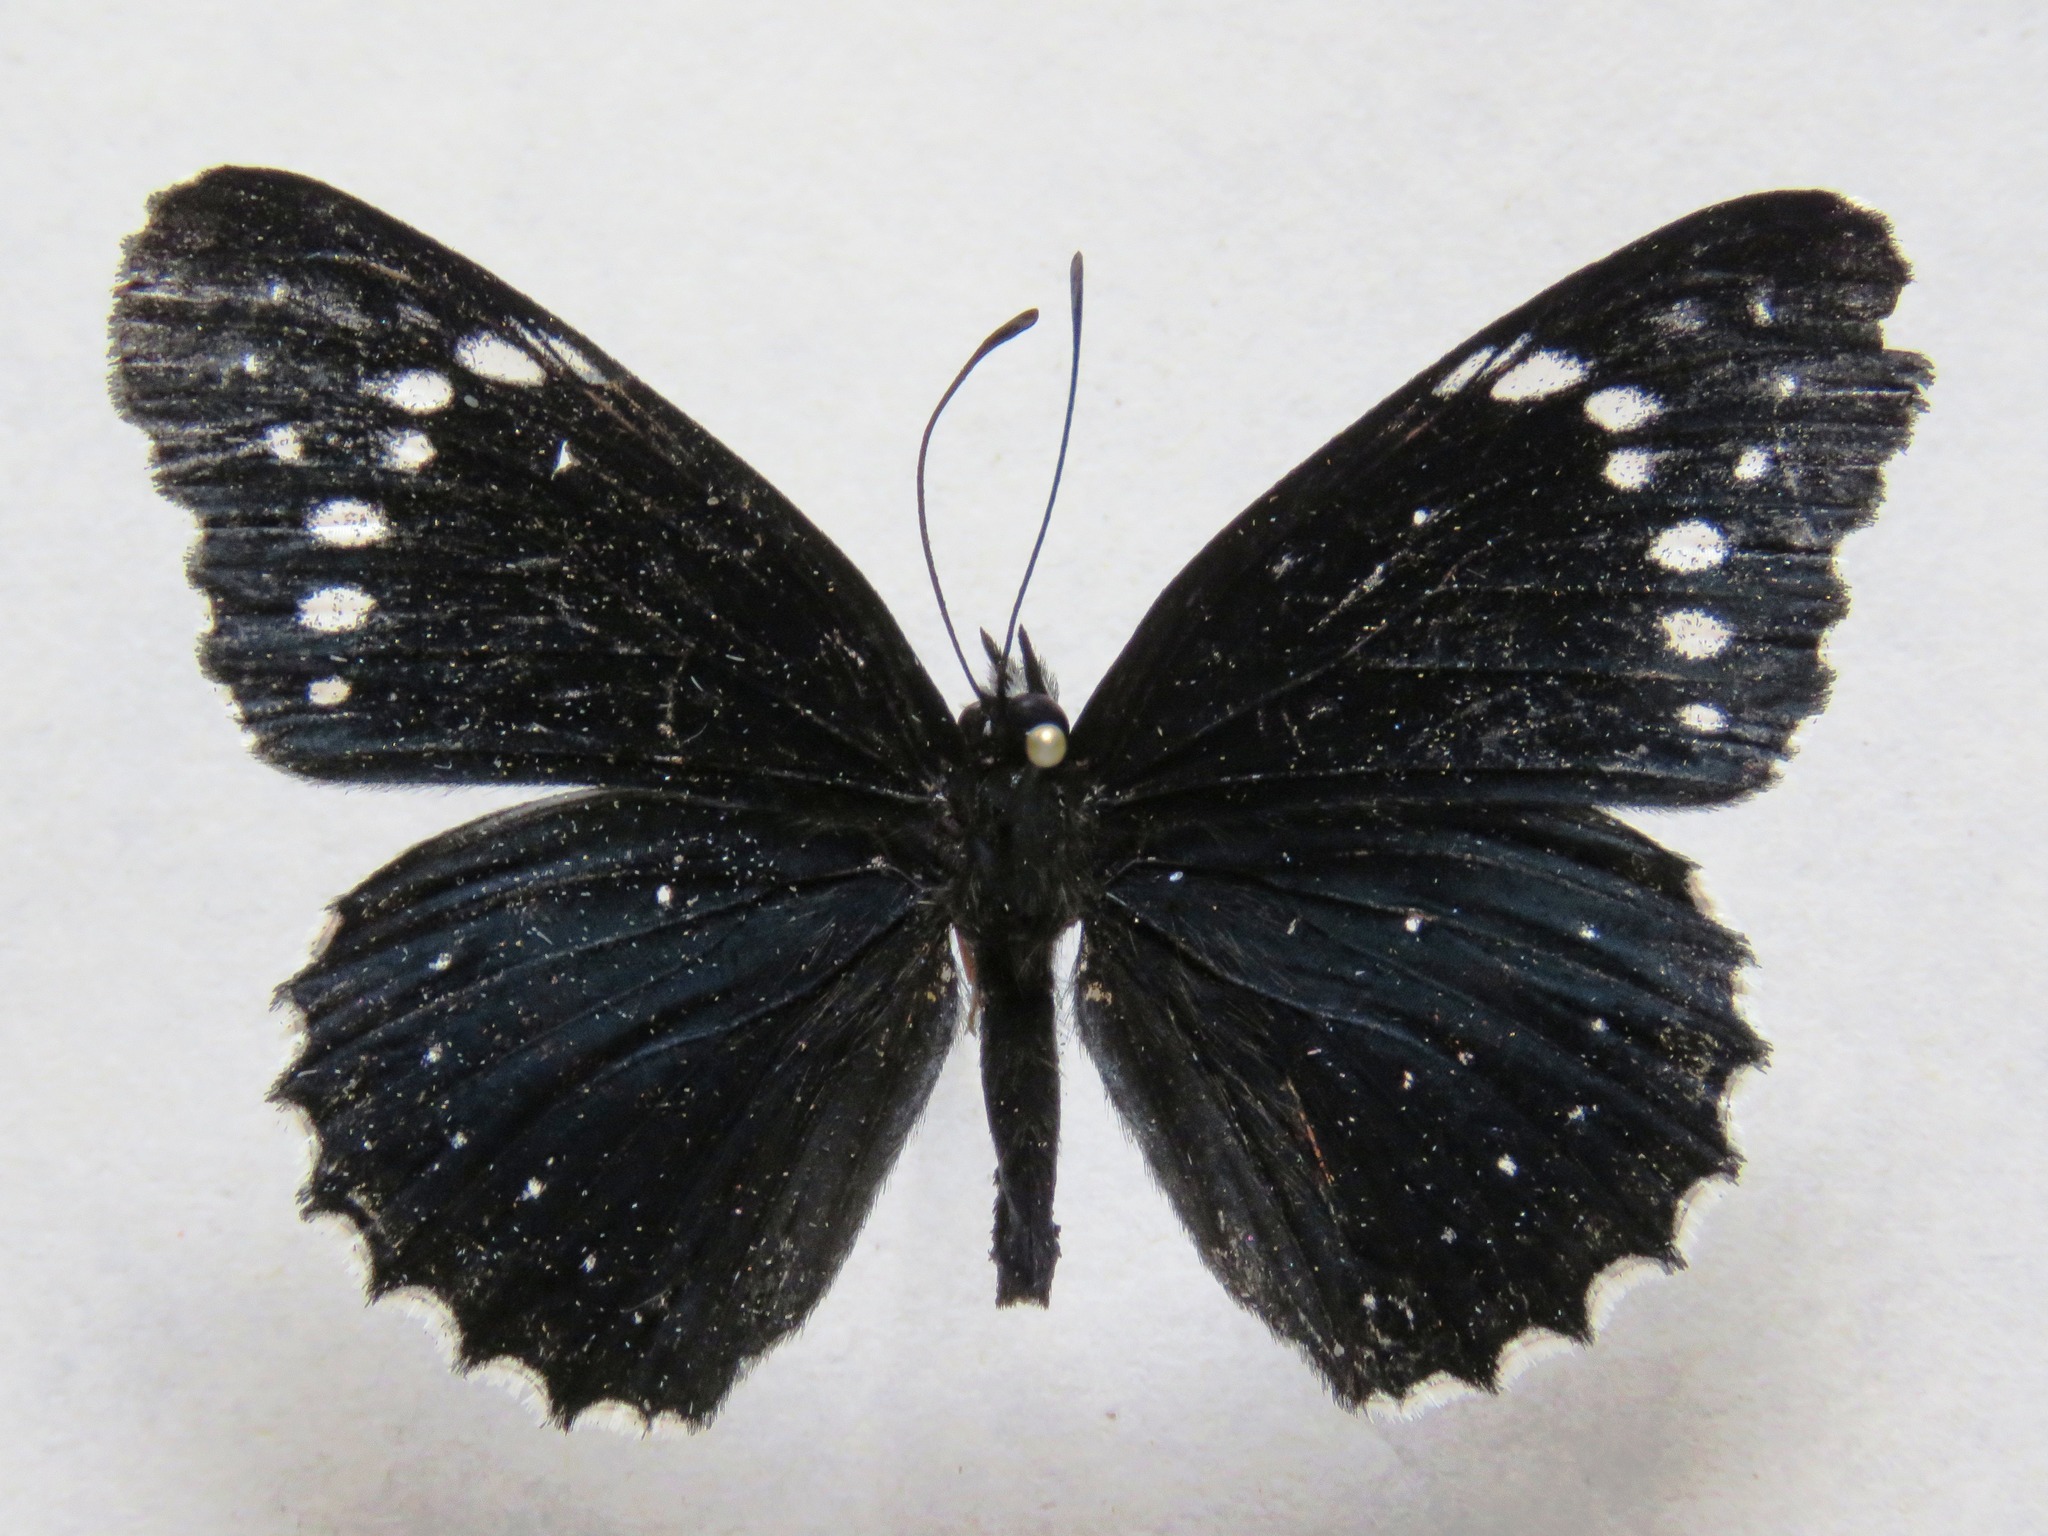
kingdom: Animalia
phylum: Arthropoda
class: Insecta
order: Lepidoptera
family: Nymphalidae
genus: Chlosyne
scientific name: Chlosyne hippodrome
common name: Simple patch
